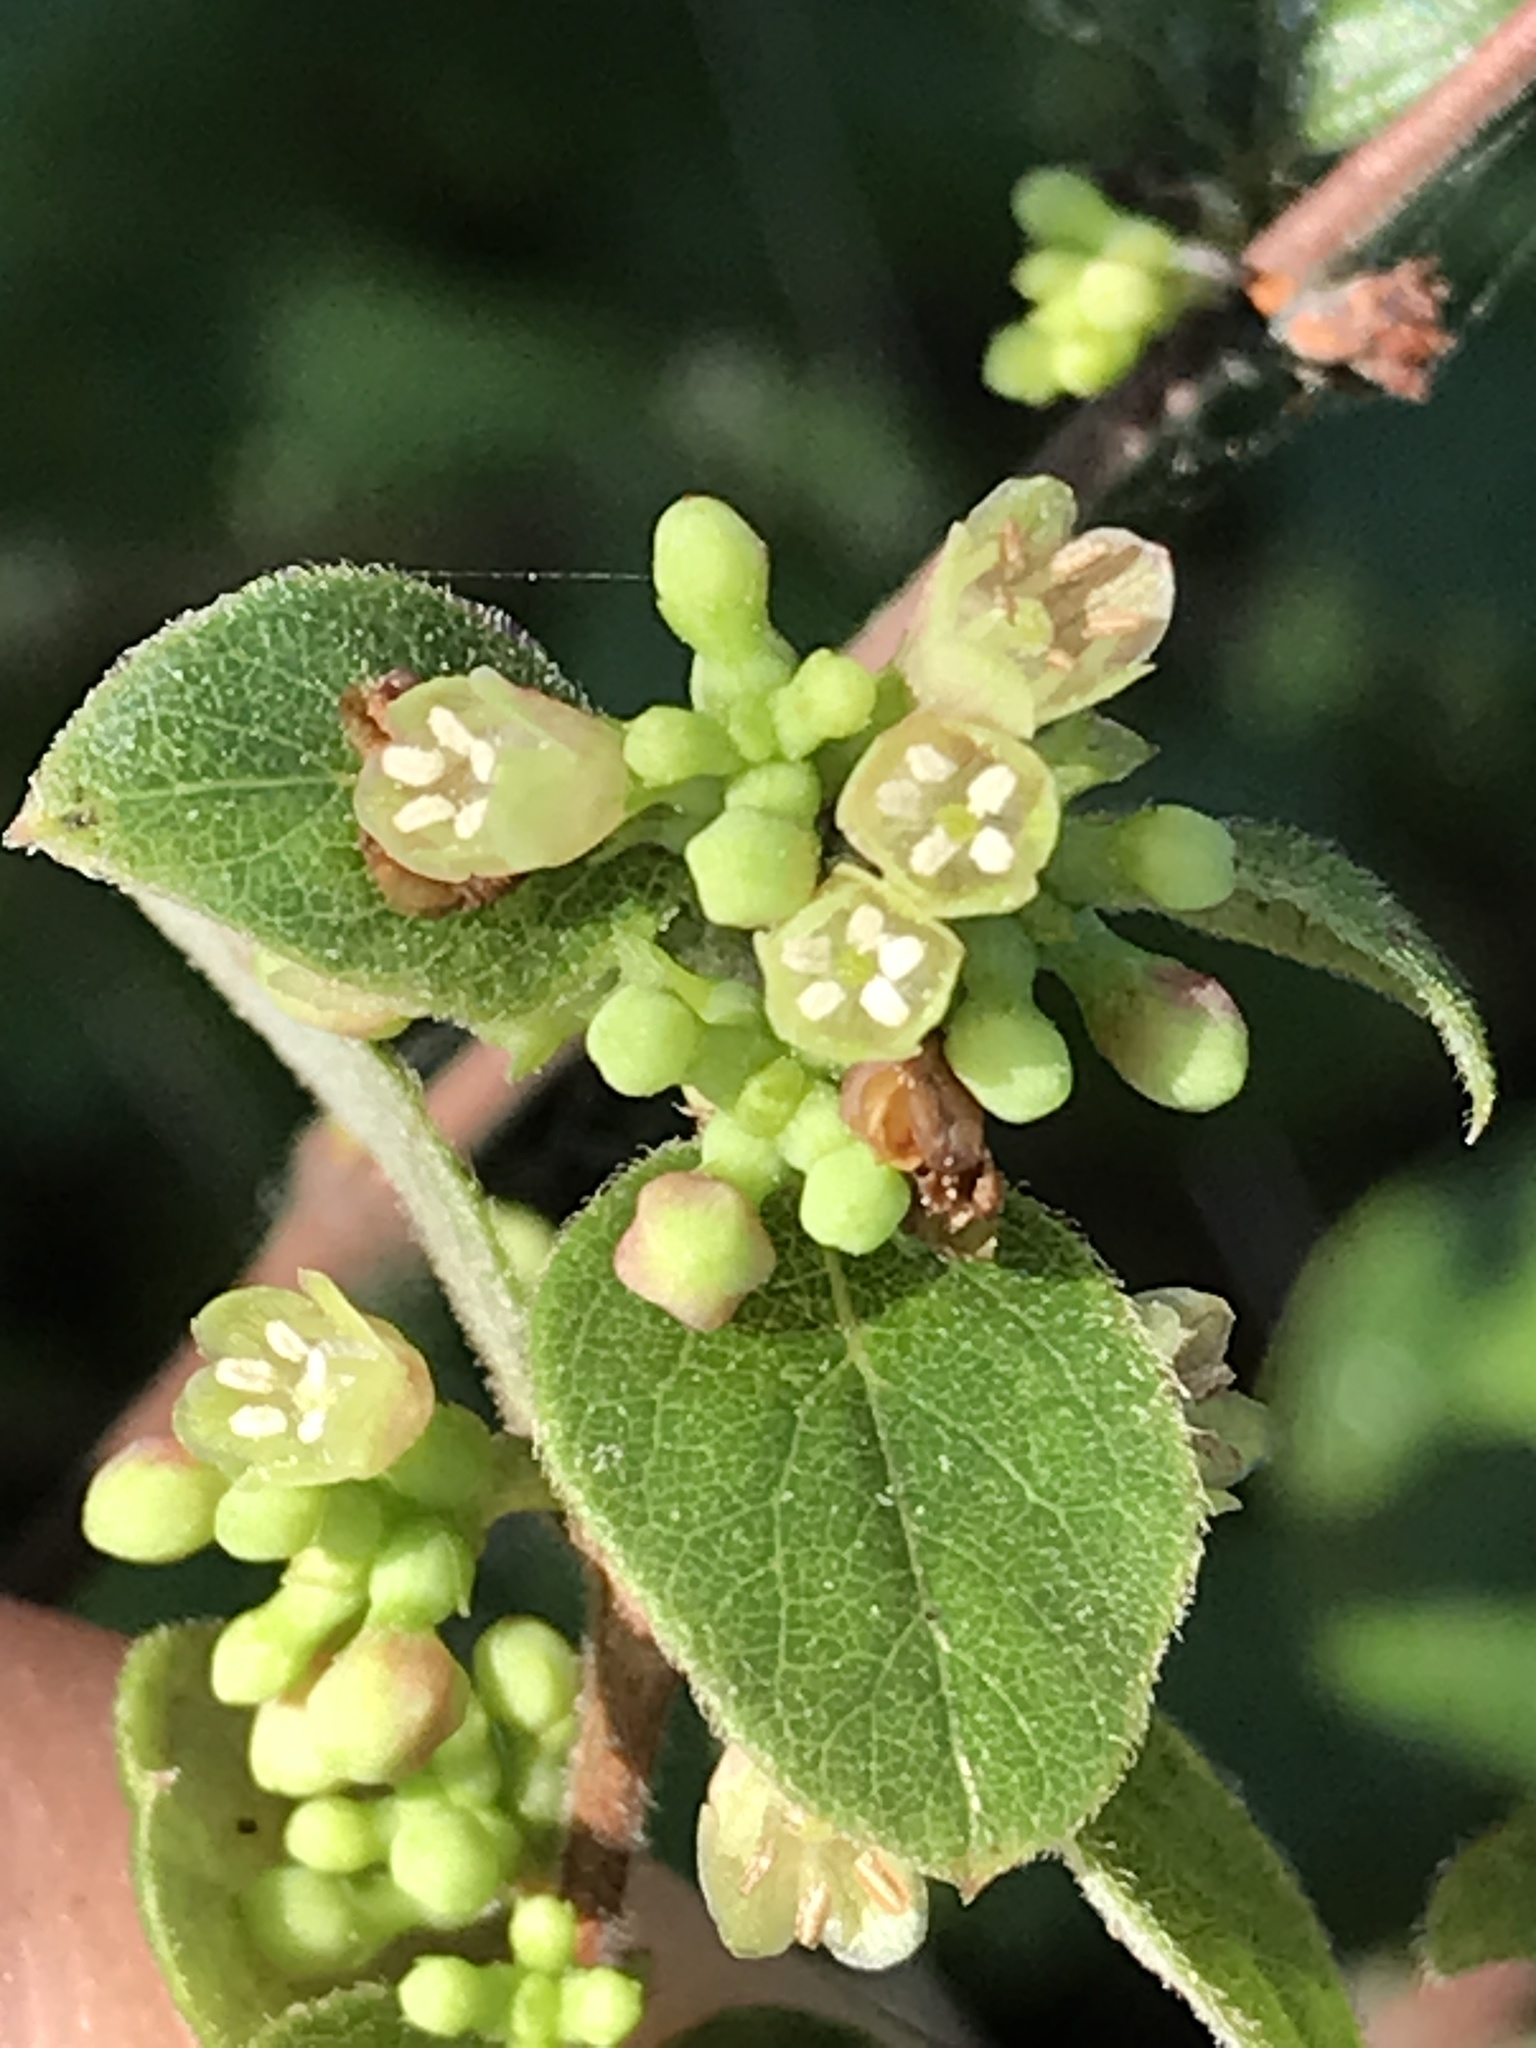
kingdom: Plantae
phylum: Tracheophyta
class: Magnoliopsida
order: Dipsacales
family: Caprifoliaceae
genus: Symphoricarpos
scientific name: Symphoricarpos orbiculatus
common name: Coralberry
